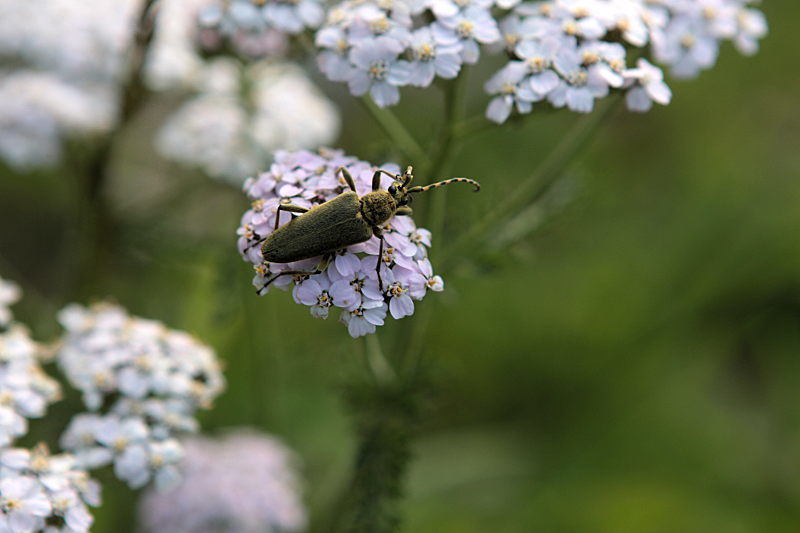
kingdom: Animalia
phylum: Arthropoda
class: Insecta
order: Coleoptera
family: Cerambycidae
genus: Lepturobosca
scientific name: Lepturobosca virens
